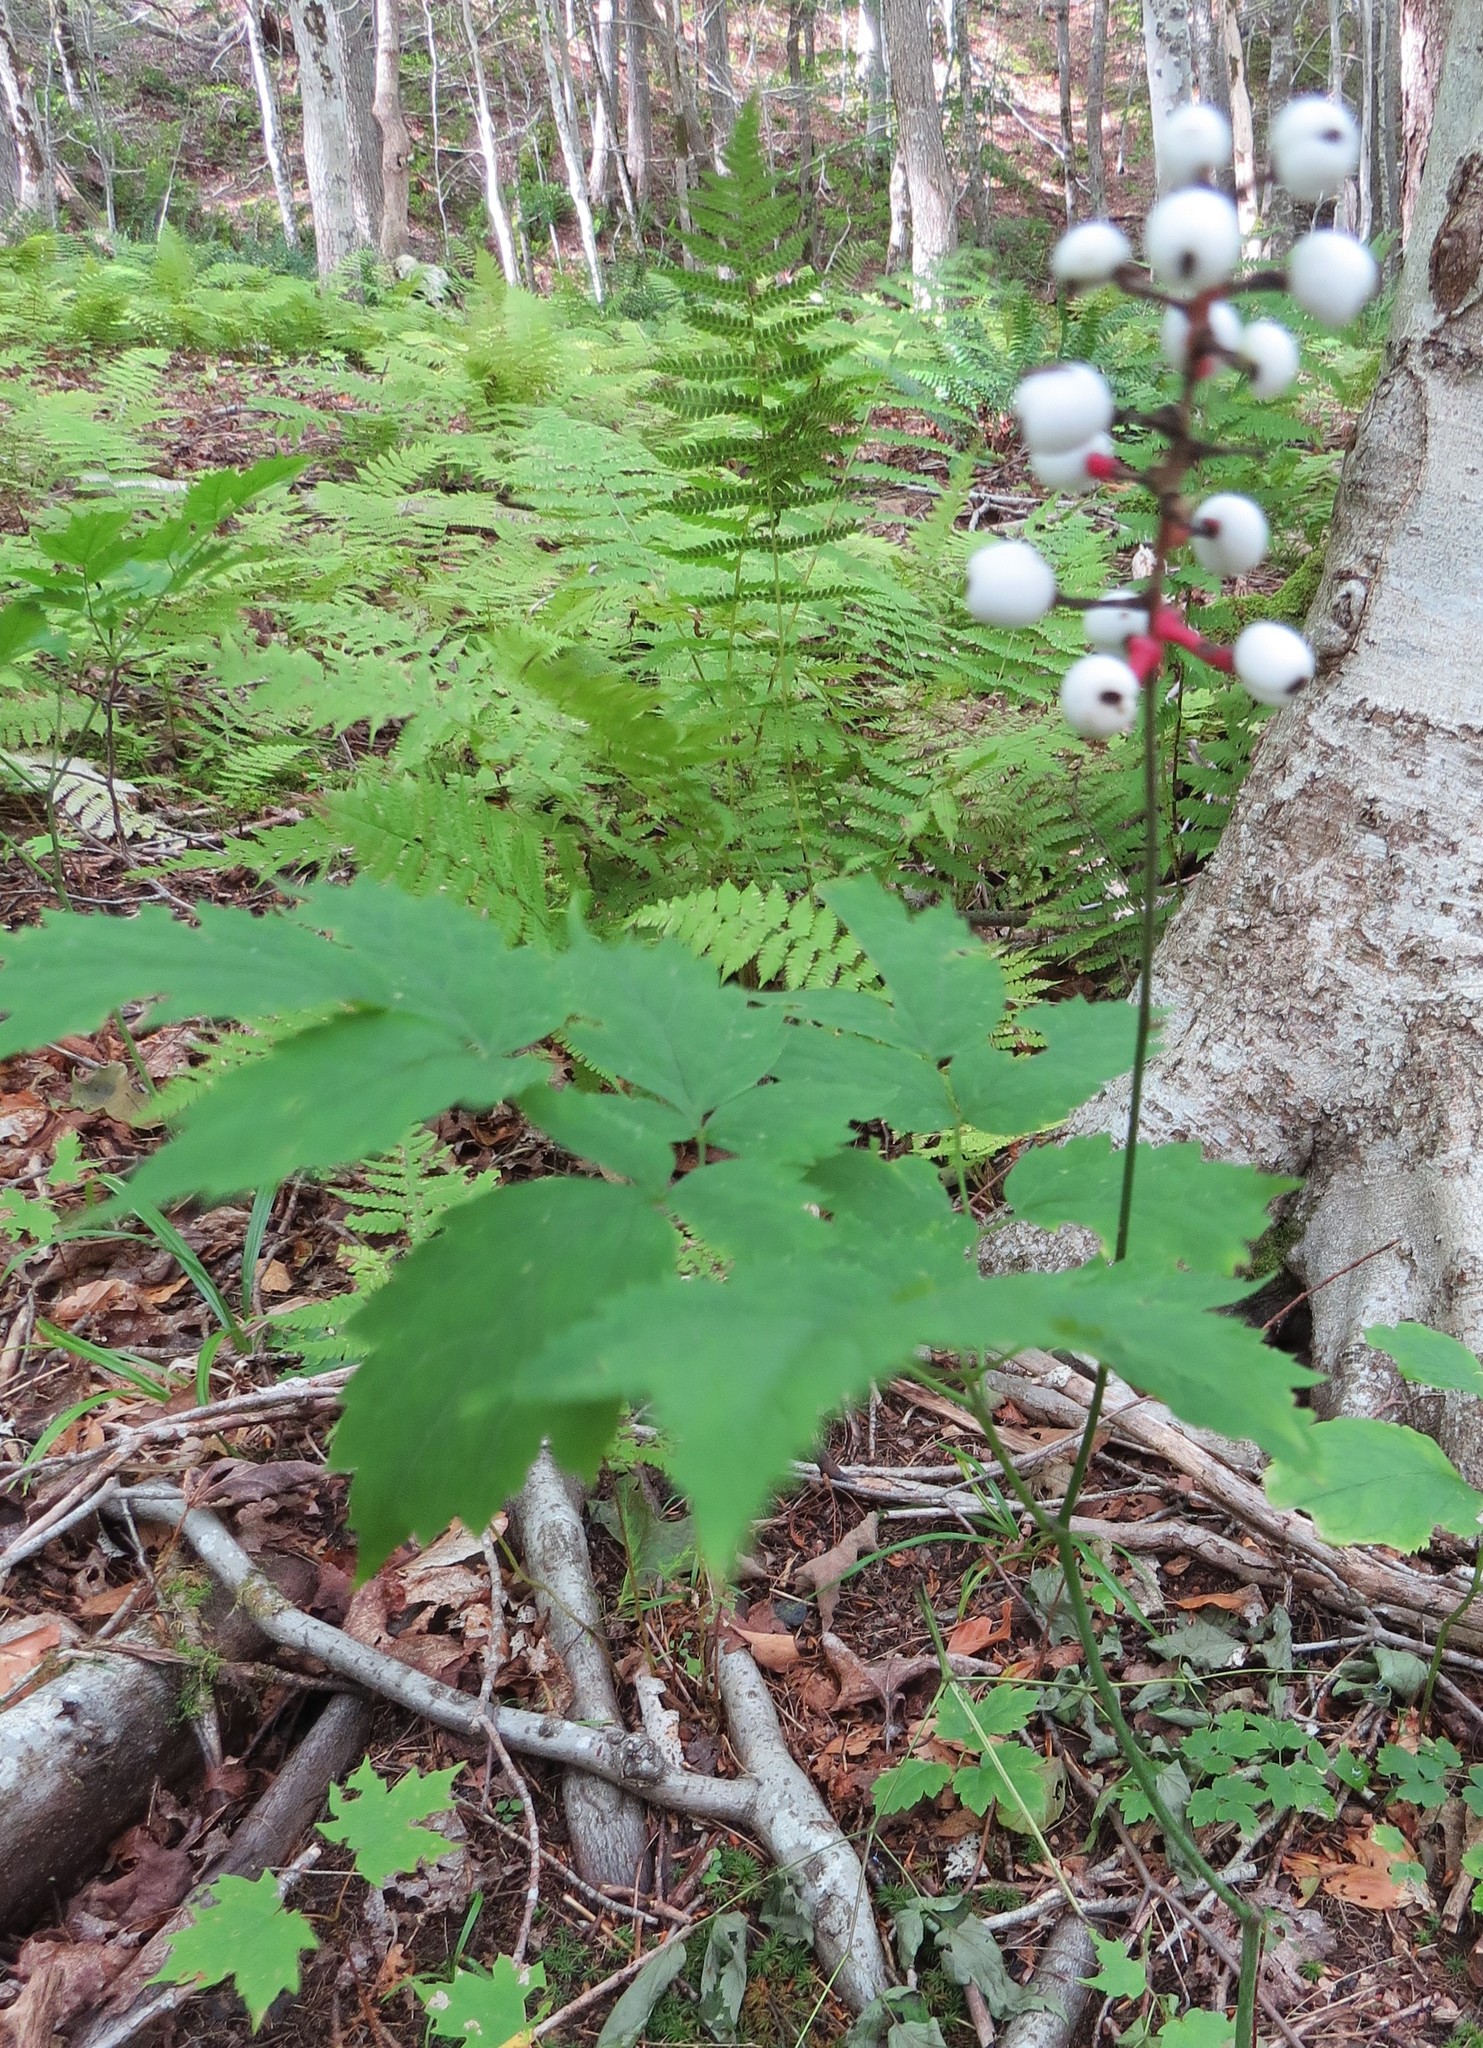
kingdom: Plantae
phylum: Tracheophyta
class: Magnoliopsida
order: Ranunculales
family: Ranunculaceae
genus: Actaea
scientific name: Actaea pachypoda
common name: Doll's-eyes
